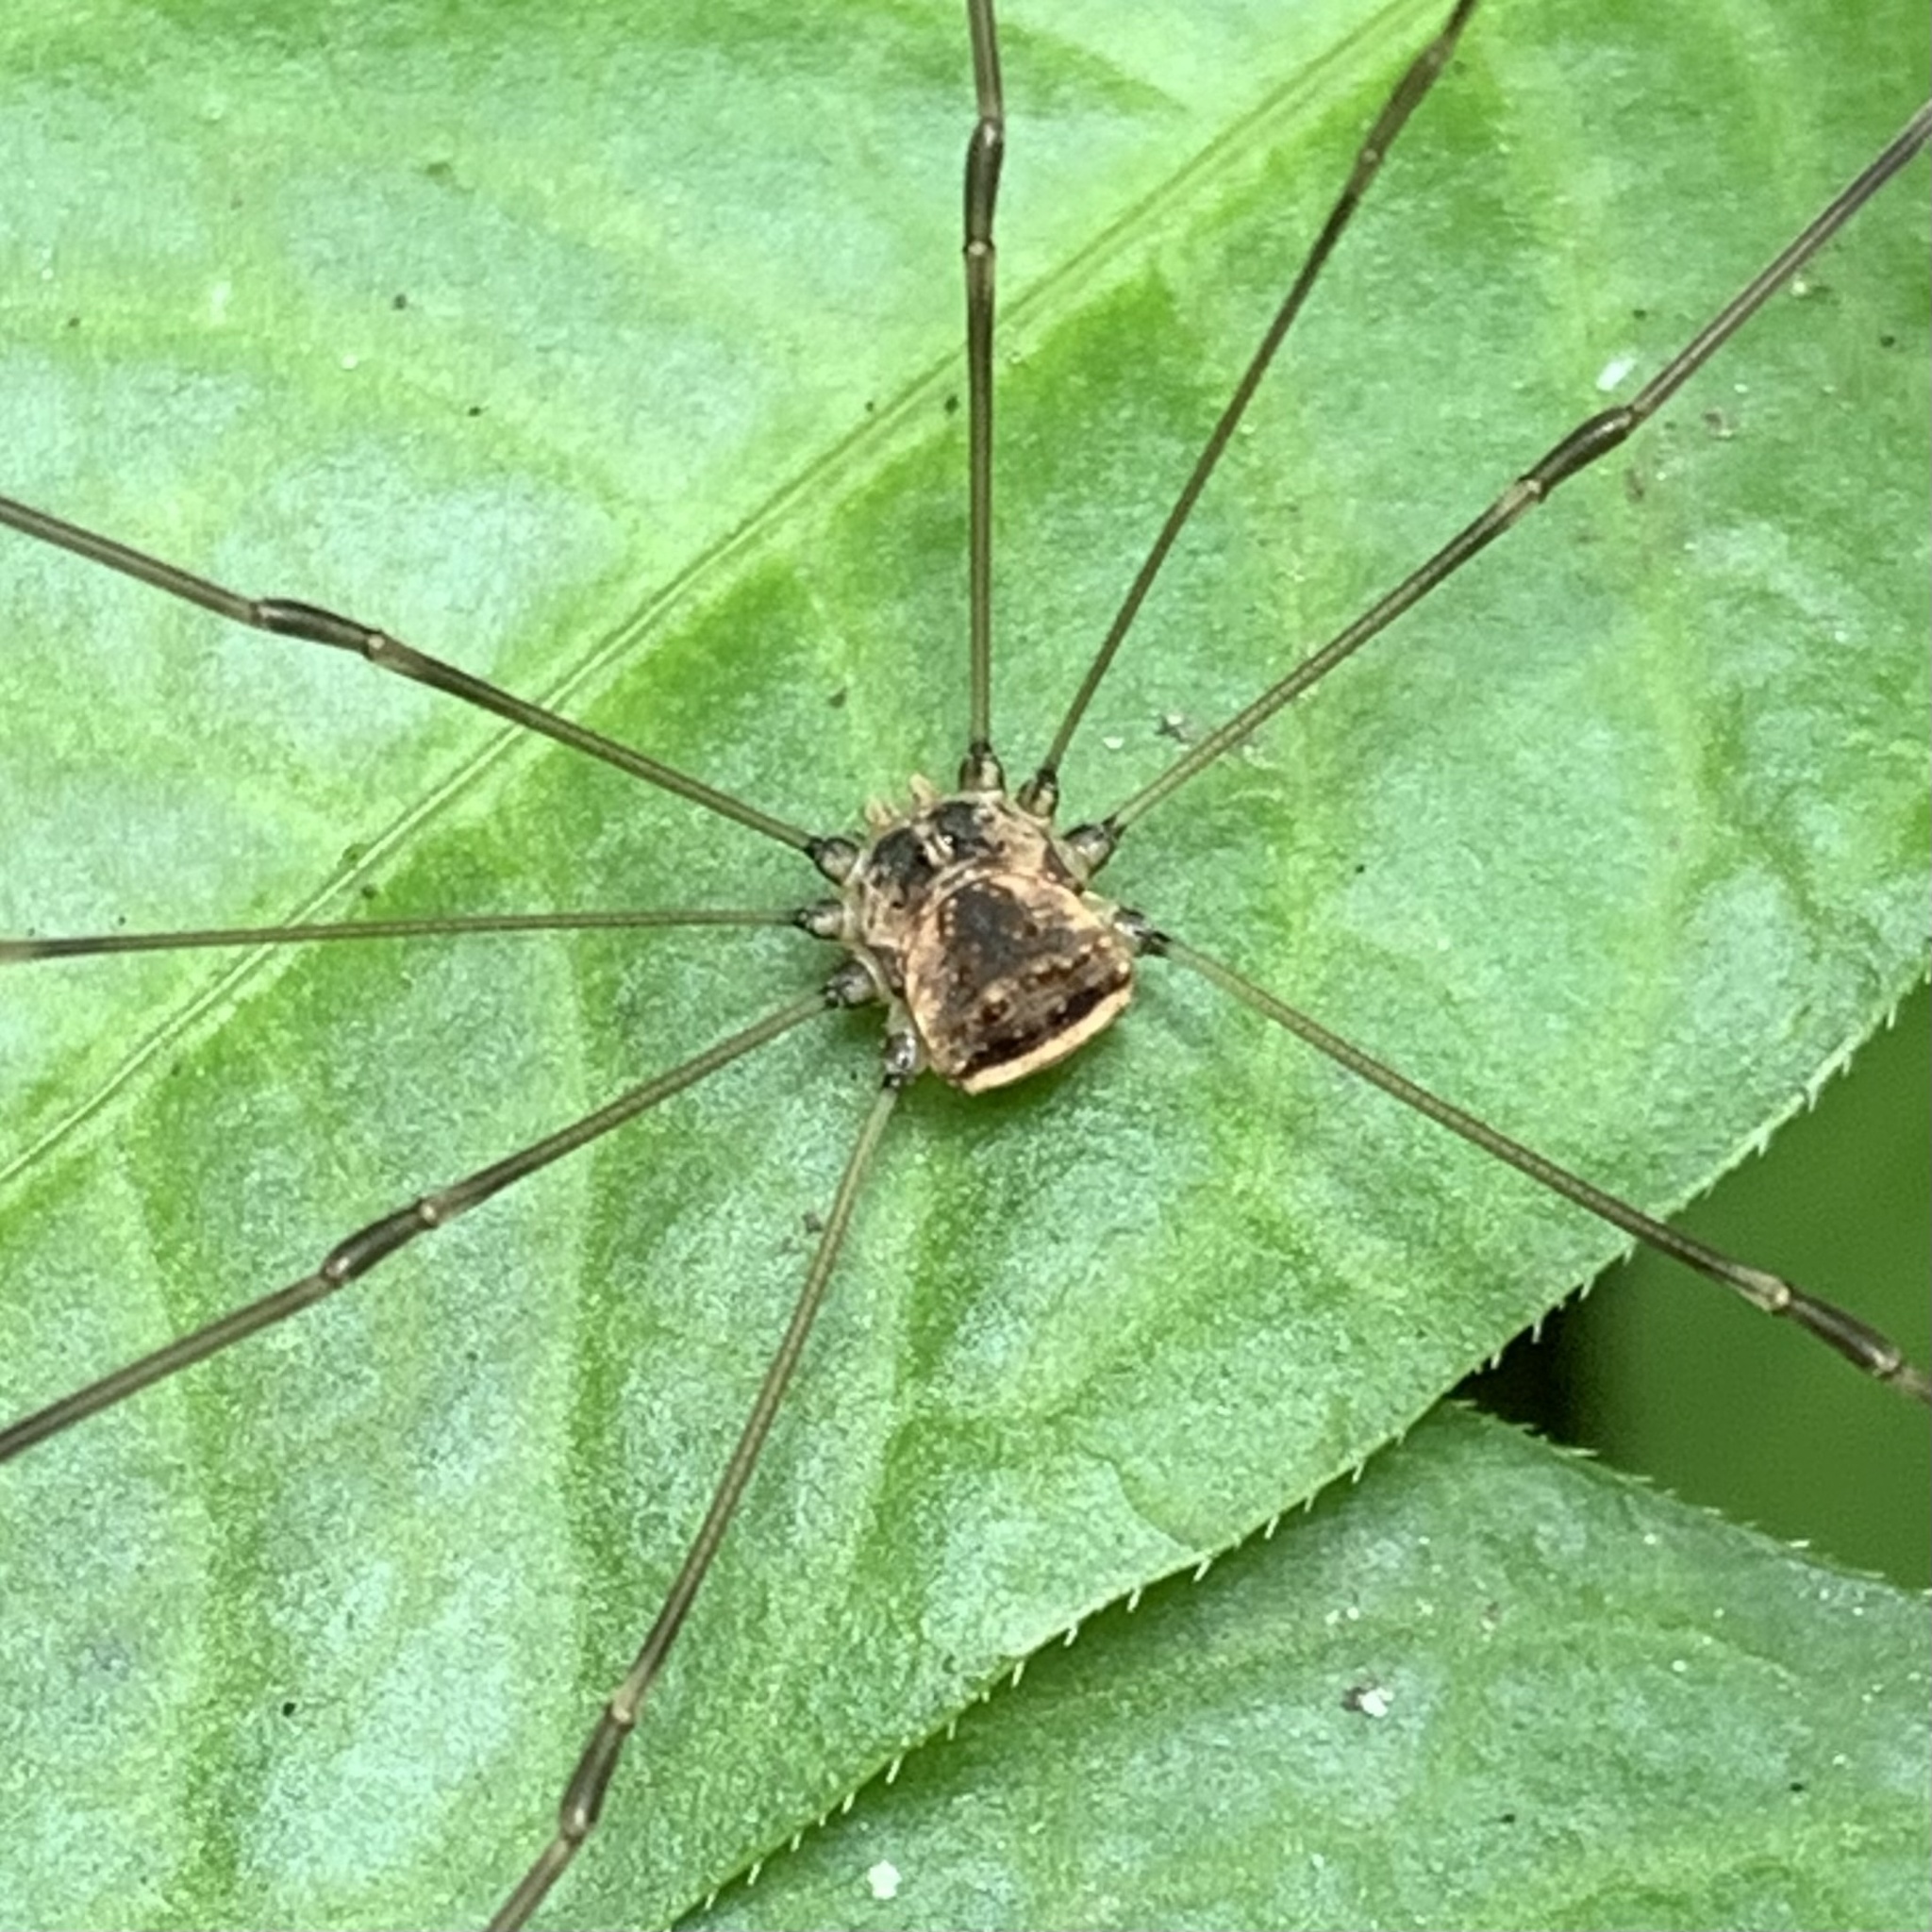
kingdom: Animalia
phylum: Arthropoda
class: Arachnida
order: Opiliones
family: Sclerosomatidae
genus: Leiobunum
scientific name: Leiobunum blackwalli
